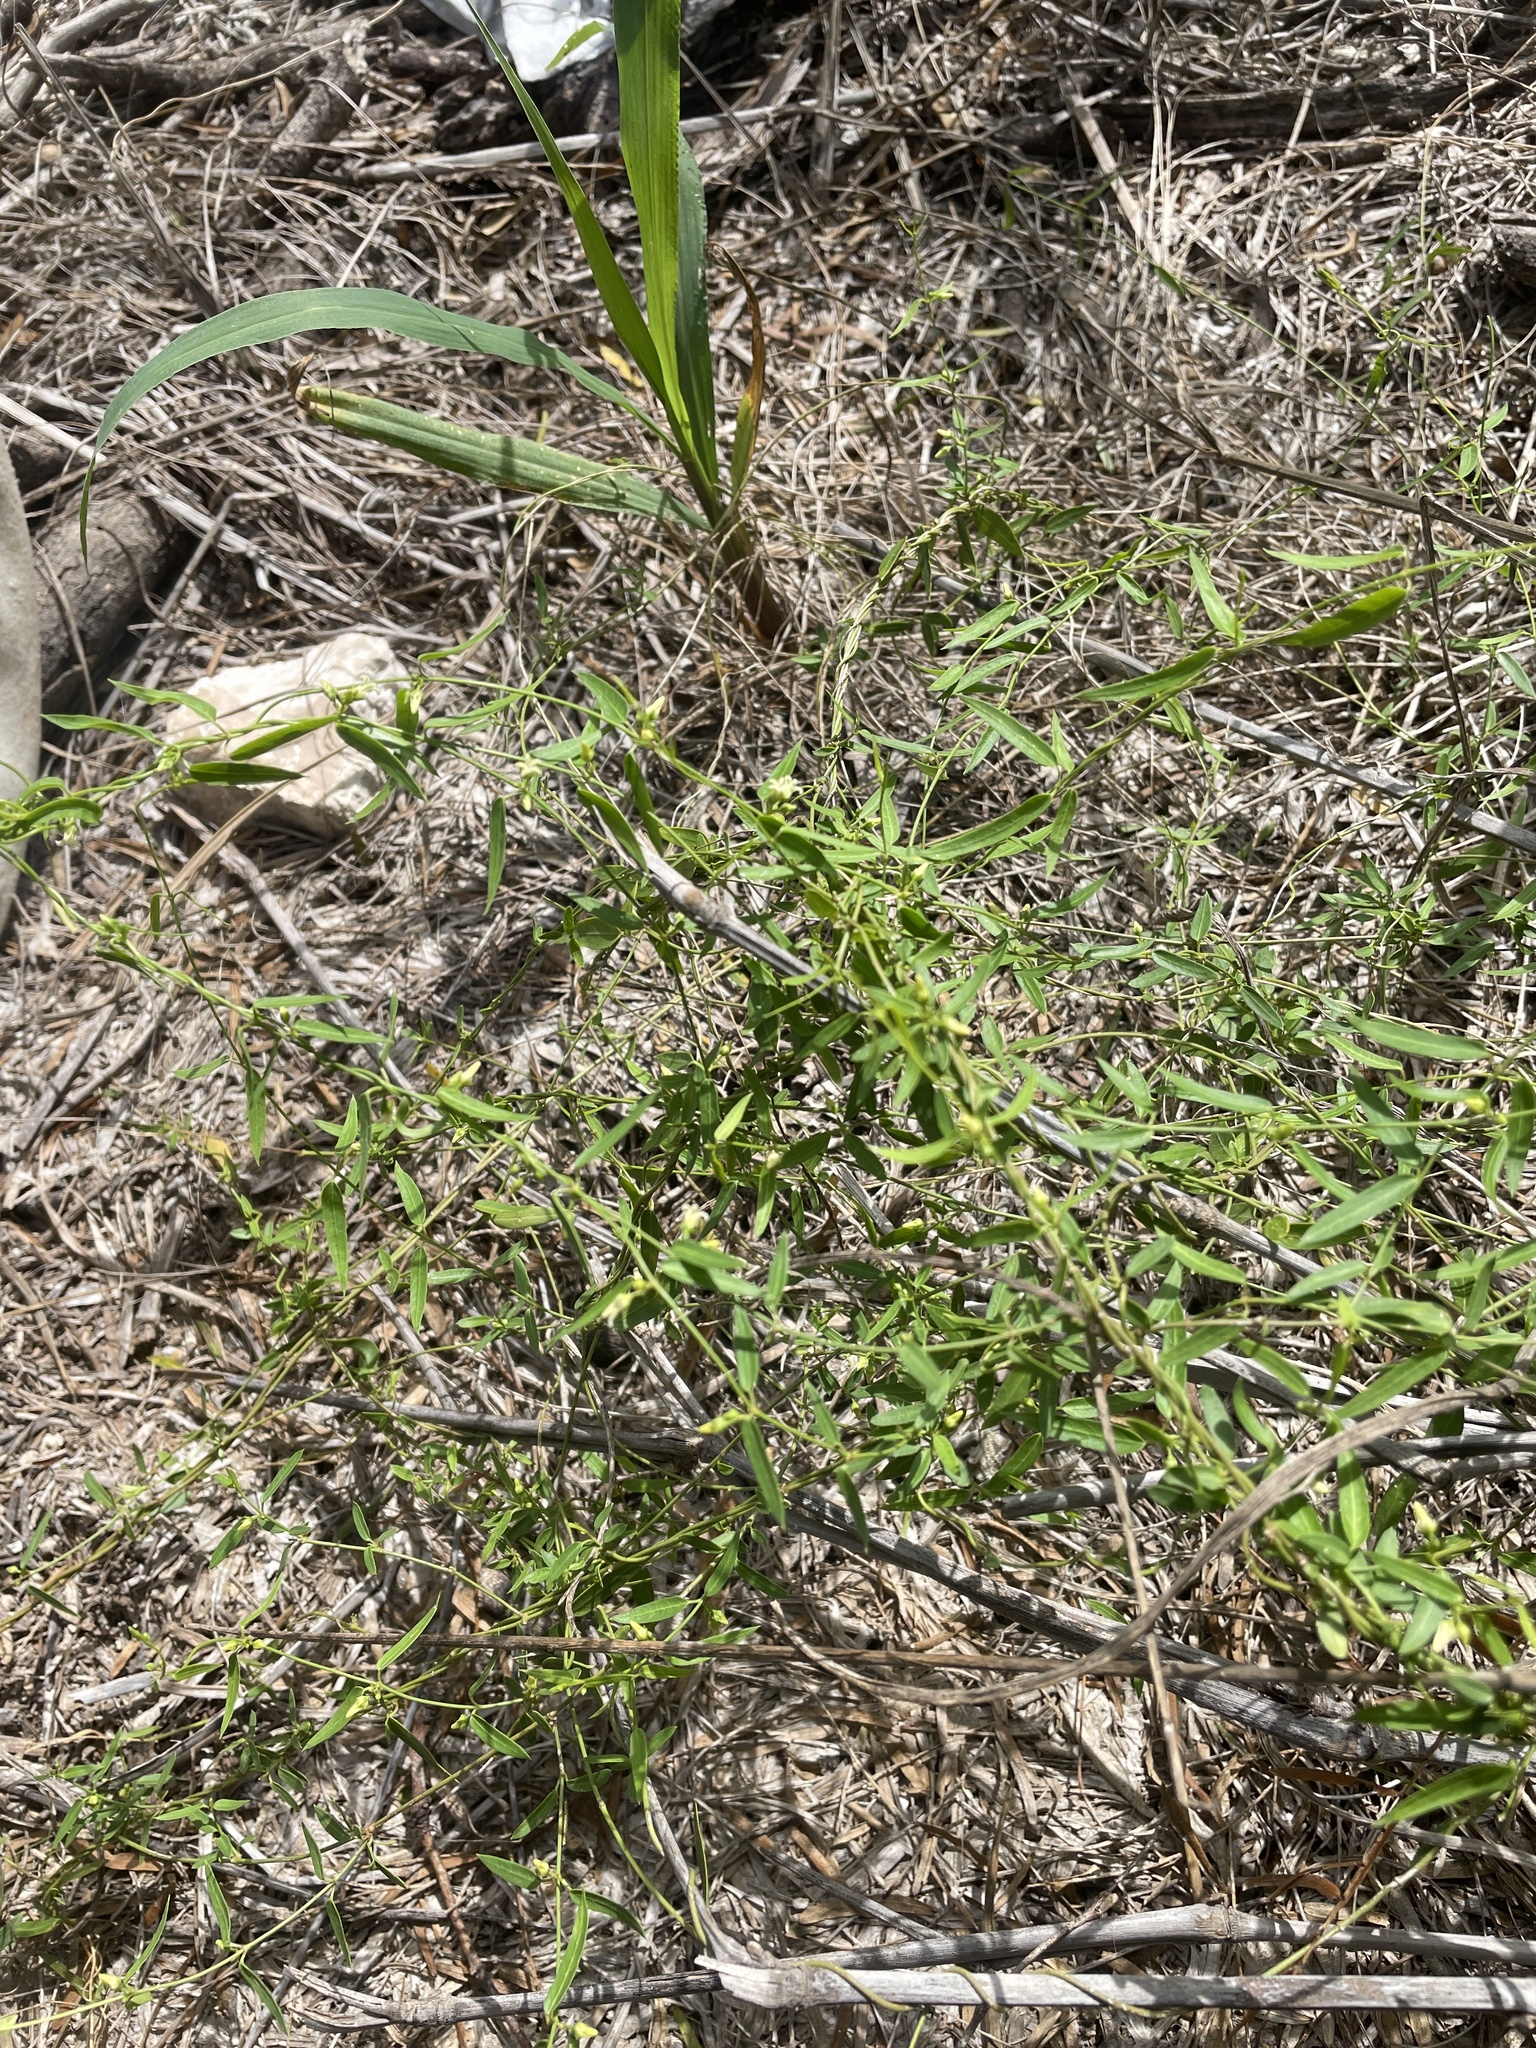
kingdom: Plantae
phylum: Tracheophyta
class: Magnoliopsida
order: Gentianales
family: Apocynaceae
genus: Metastelma
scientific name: Metastelma barbigerum
